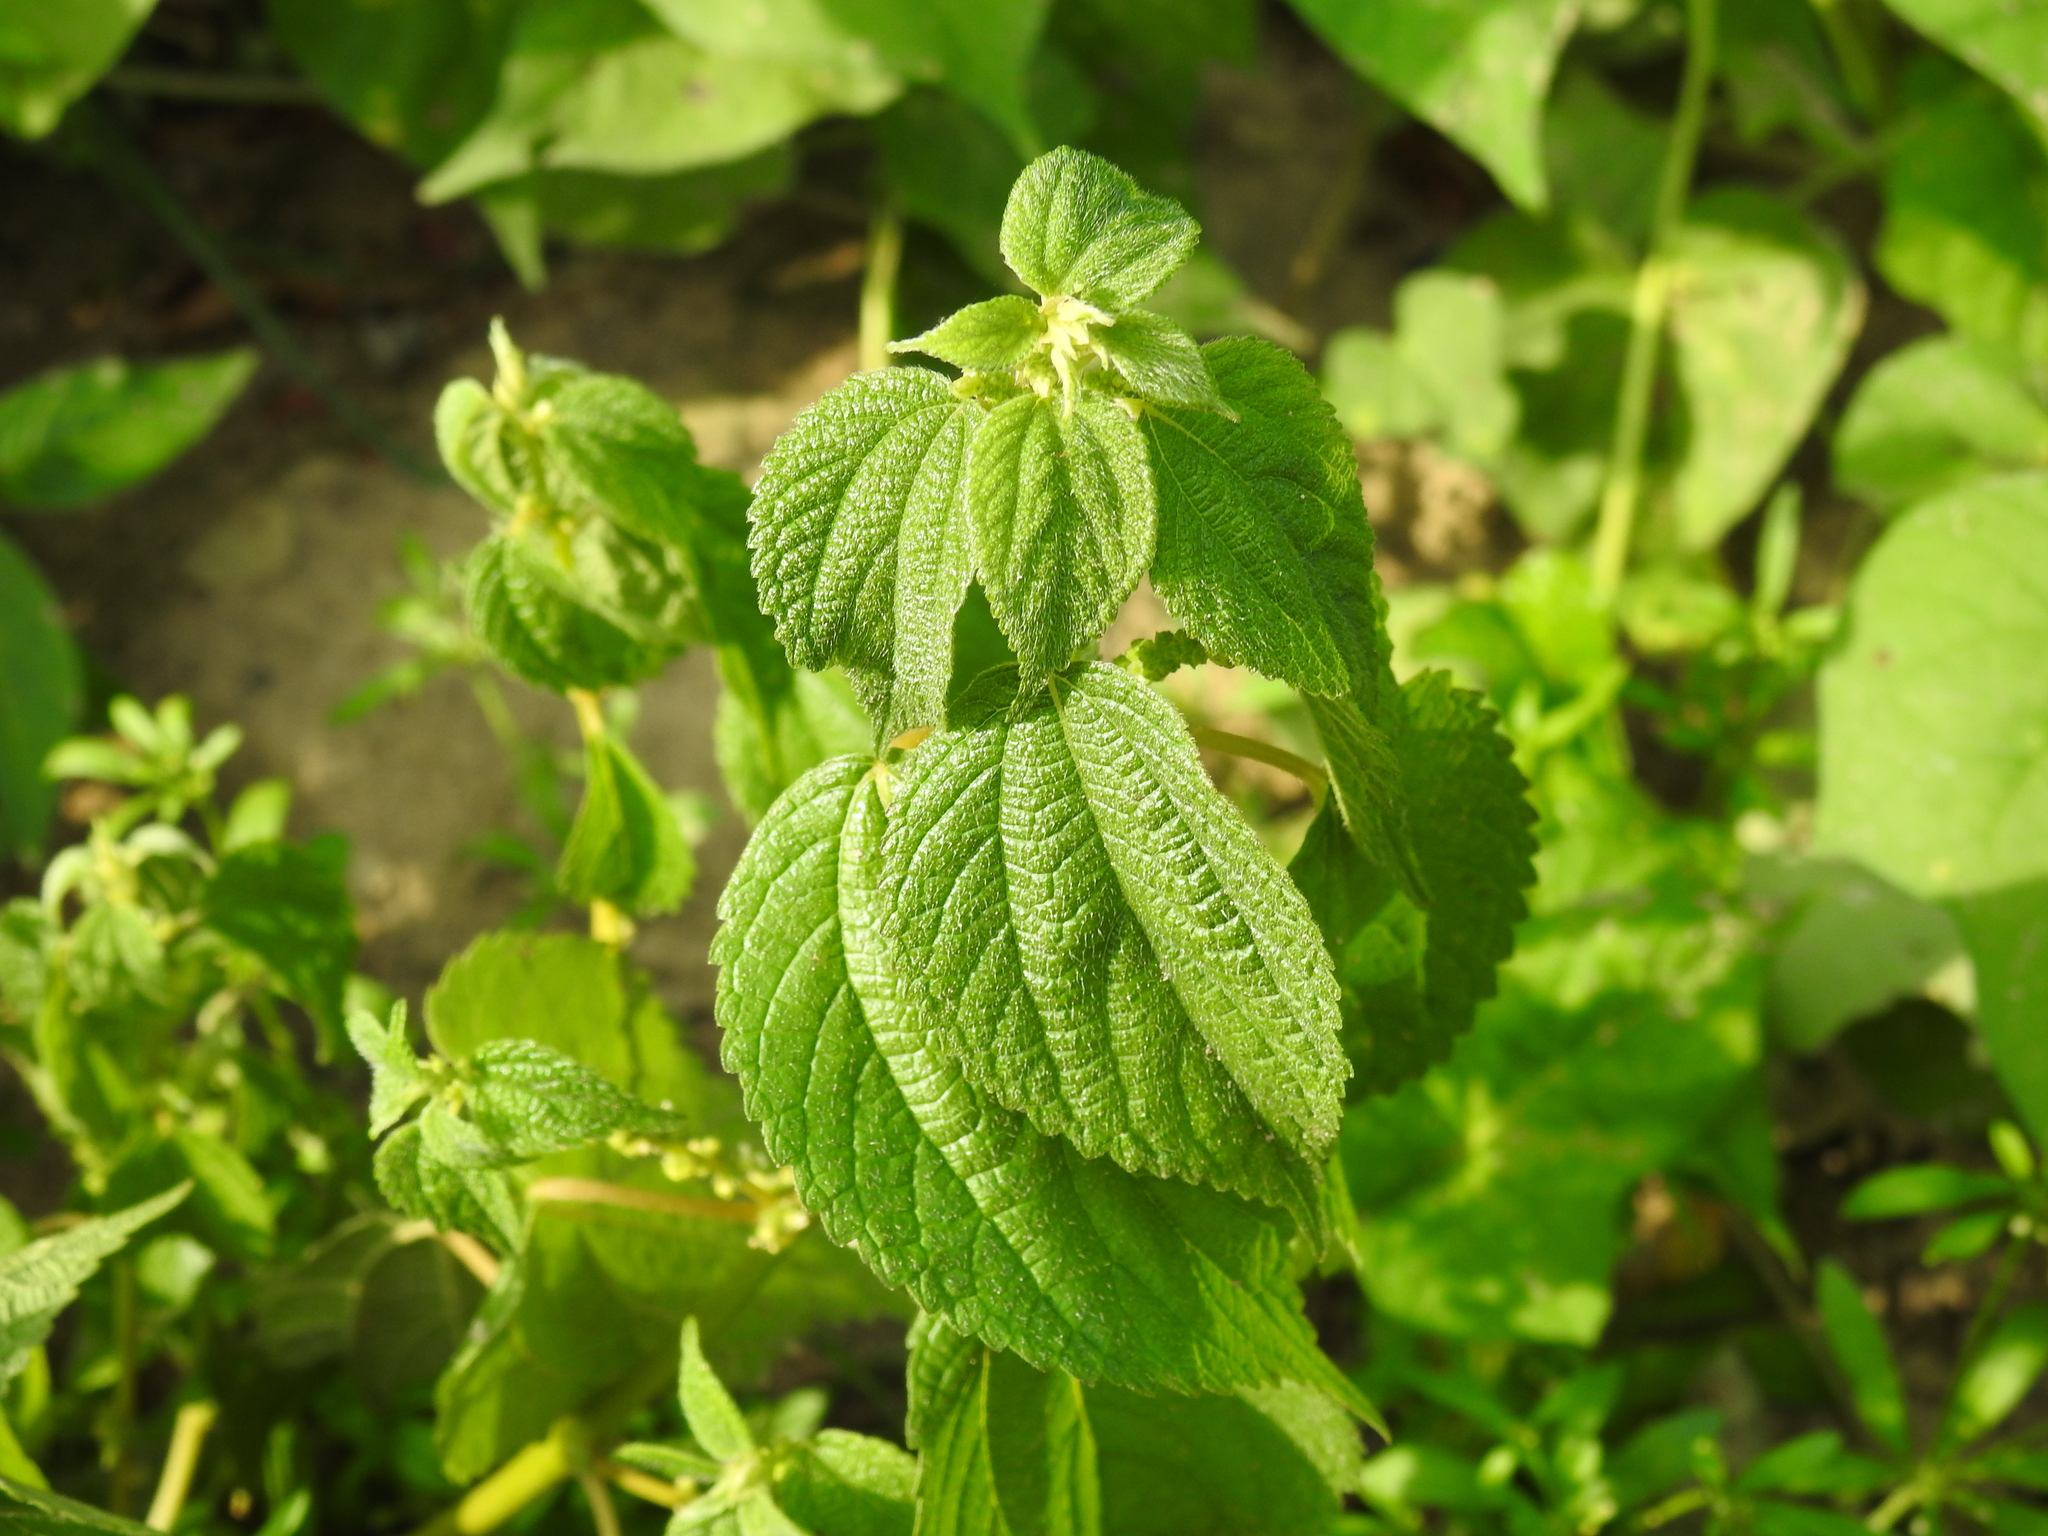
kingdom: Plantae
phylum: Tracheophyta
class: Magnoliopsida
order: Rosales
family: Urticaceae
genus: Boehmeria
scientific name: Boehmeria cylindrica
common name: Bog-hemp
